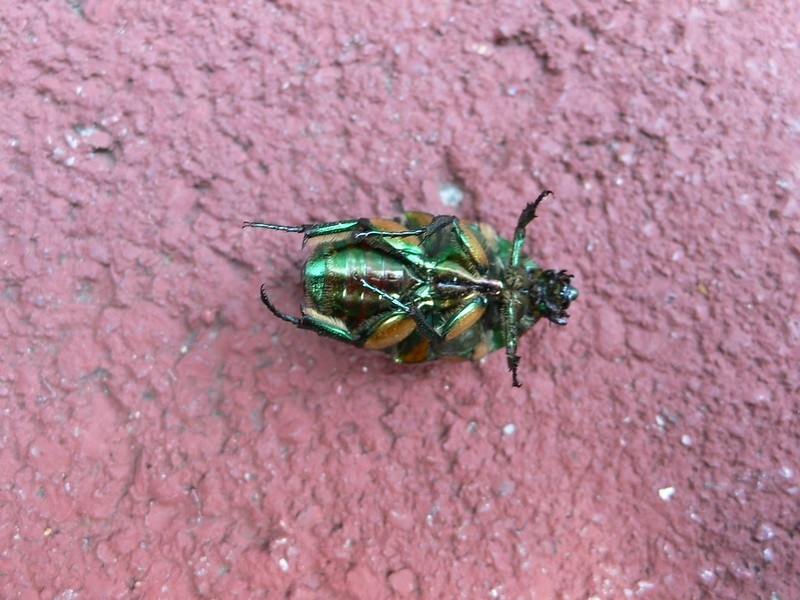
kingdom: Animalia
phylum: Arthropoda
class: Insecta
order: Coleoptera
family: Scarabaeidae
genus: Cotinis
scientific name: Cotinis nitida
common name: Common green june beetle
